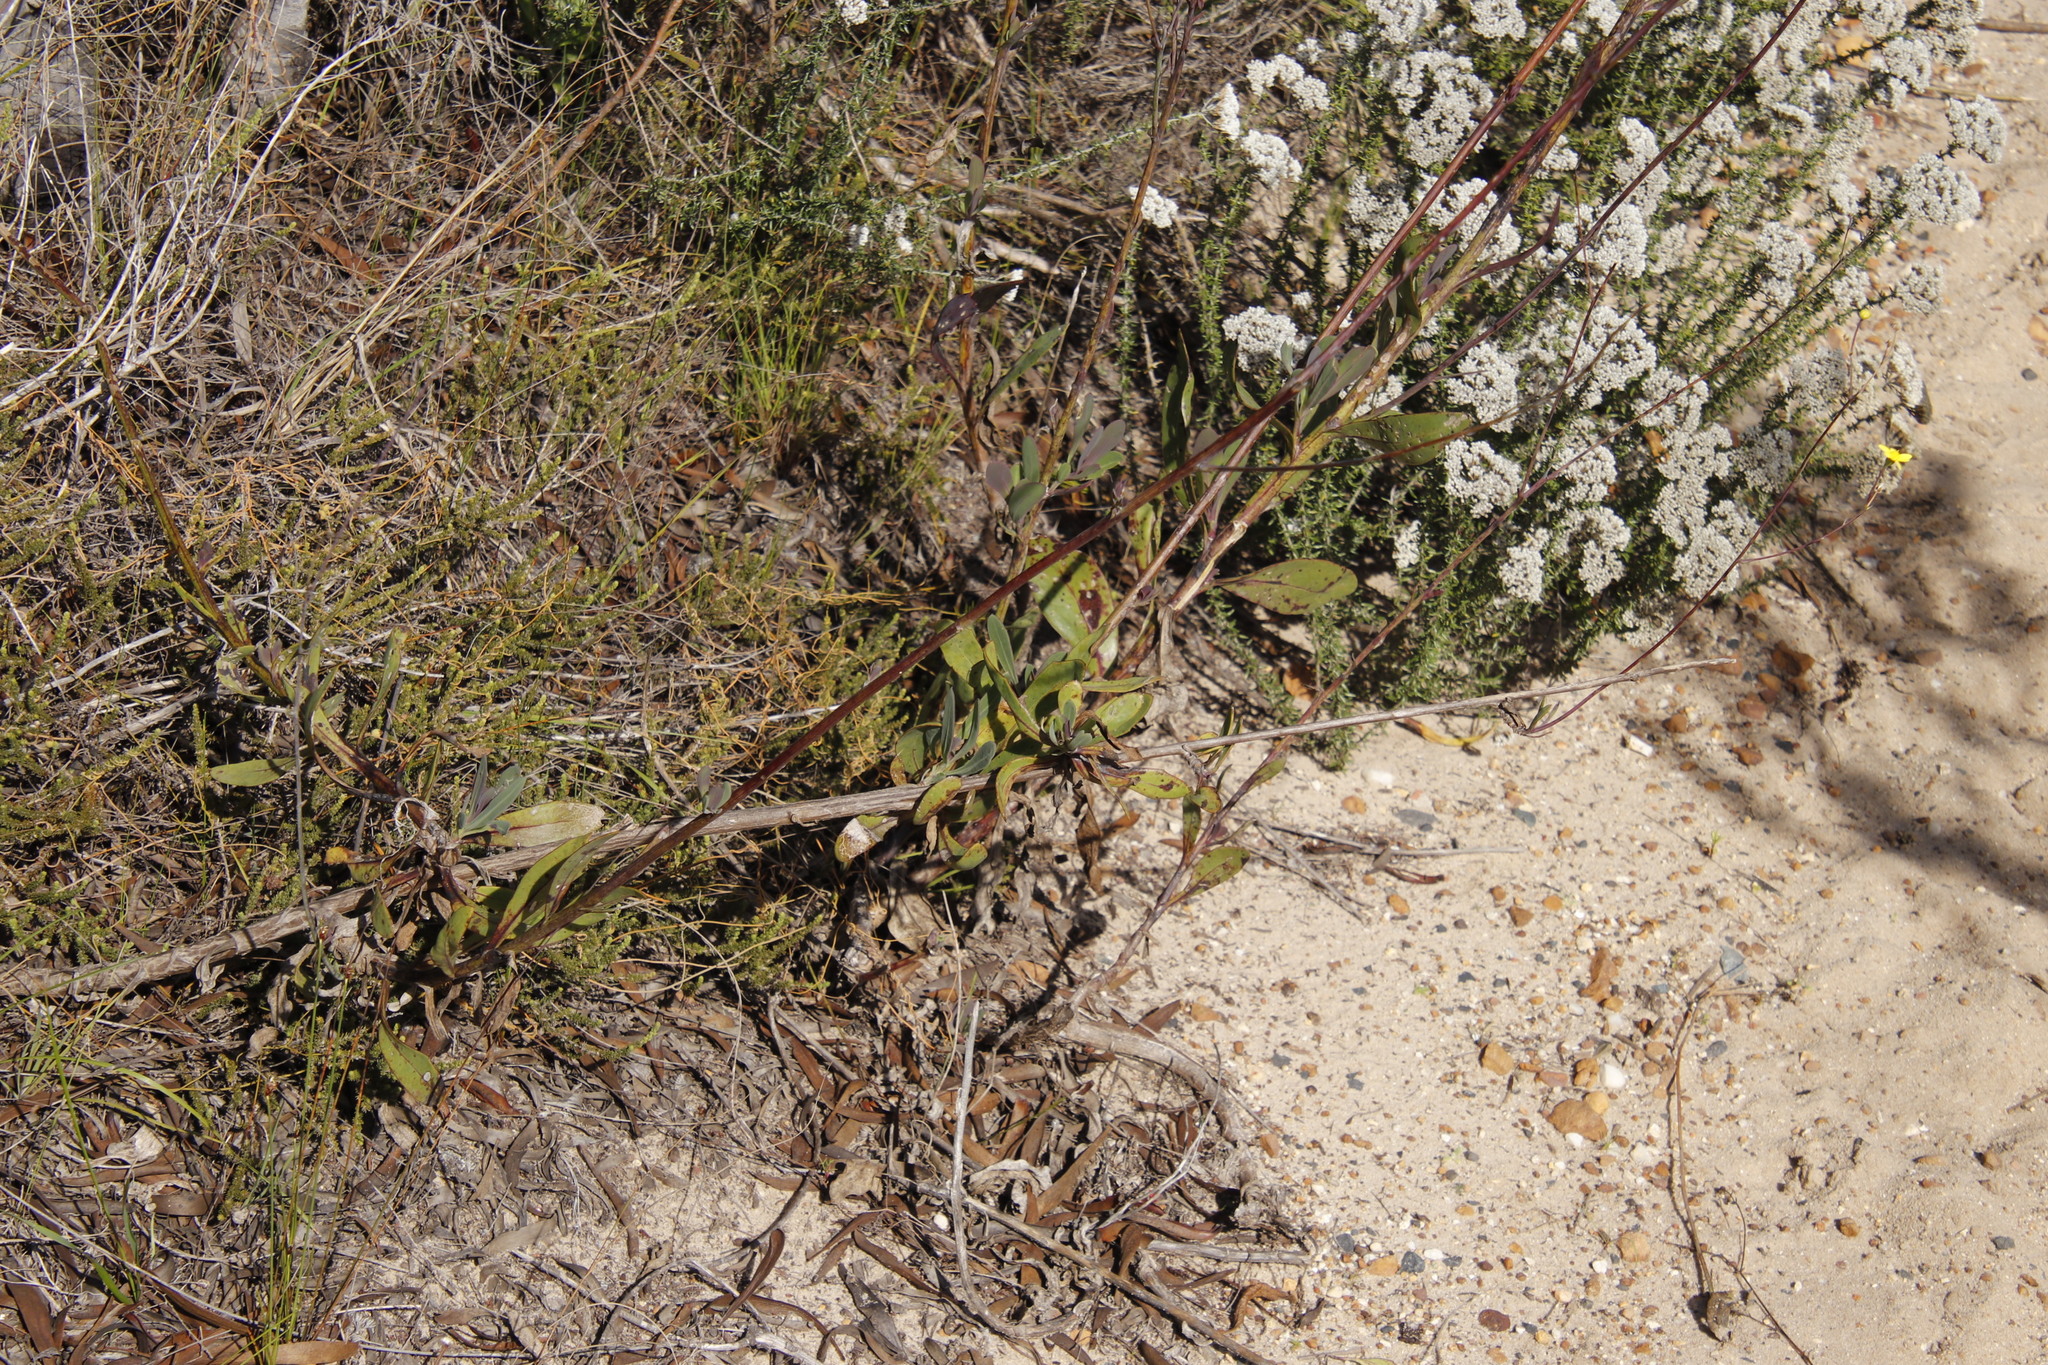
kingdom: Plantae
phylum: Tracheophyta
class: Magnoliopsida
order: Asterales
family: Asteraceae
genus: Othonna
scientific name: Othonna quinquedentata
